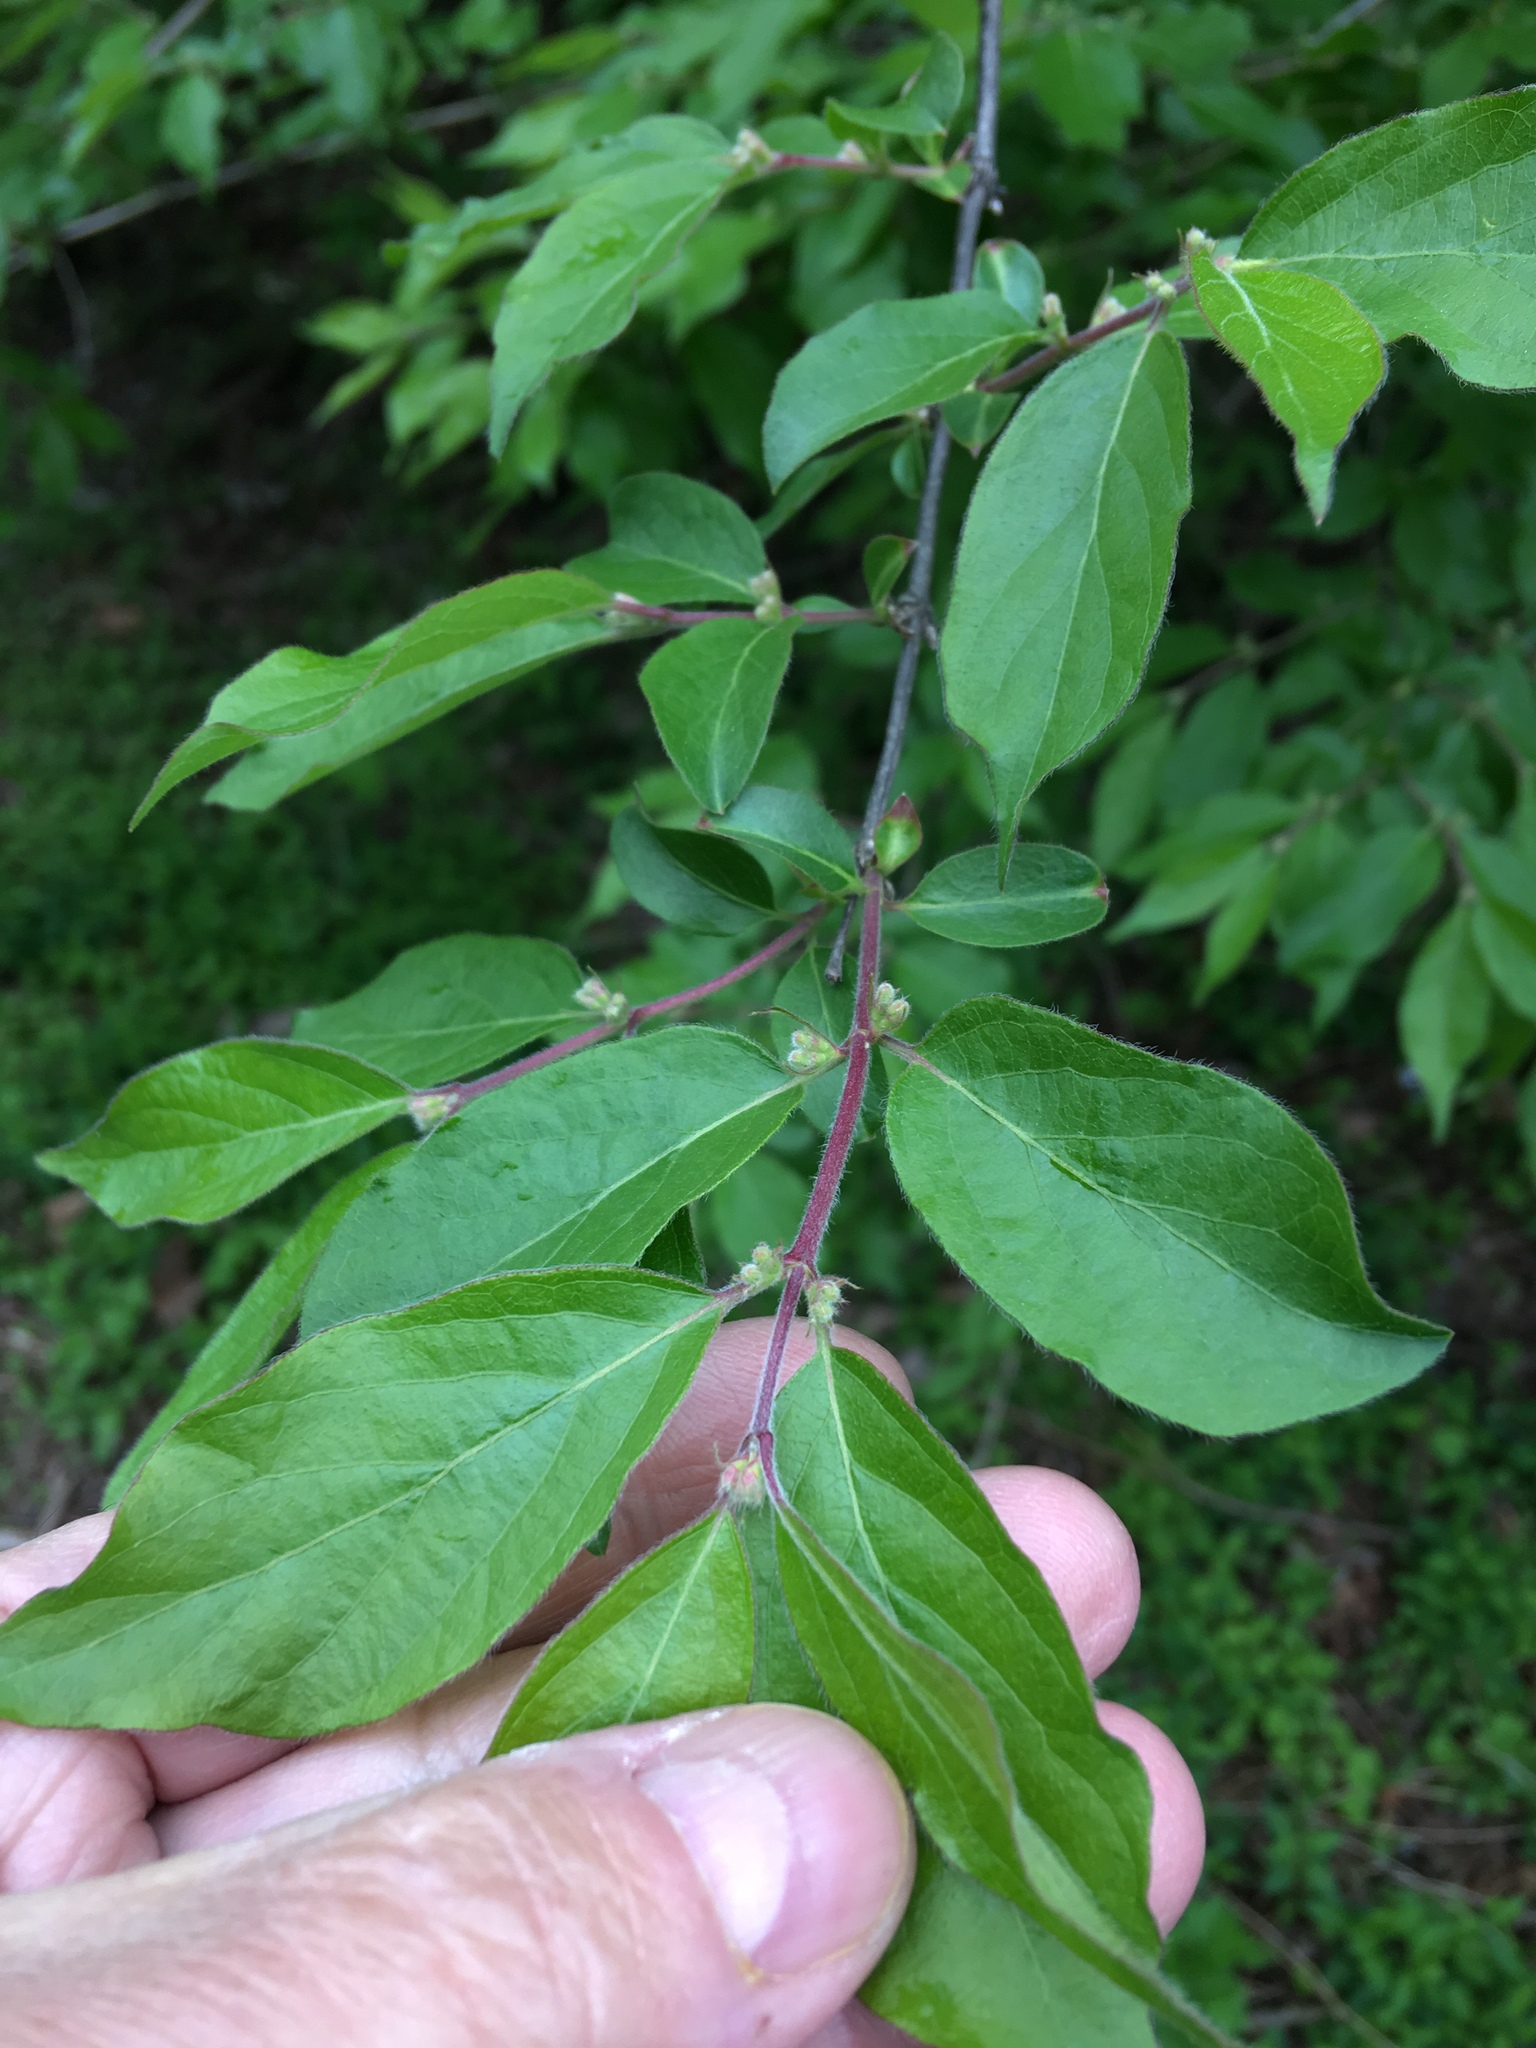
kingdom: Plantae
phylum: Tracheophyta
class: Magnoliopsida
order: Dipsacales
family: Caprifoliaceae
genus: Lonicera
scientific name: Lonicera maackii
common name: Amur honeysuckle
